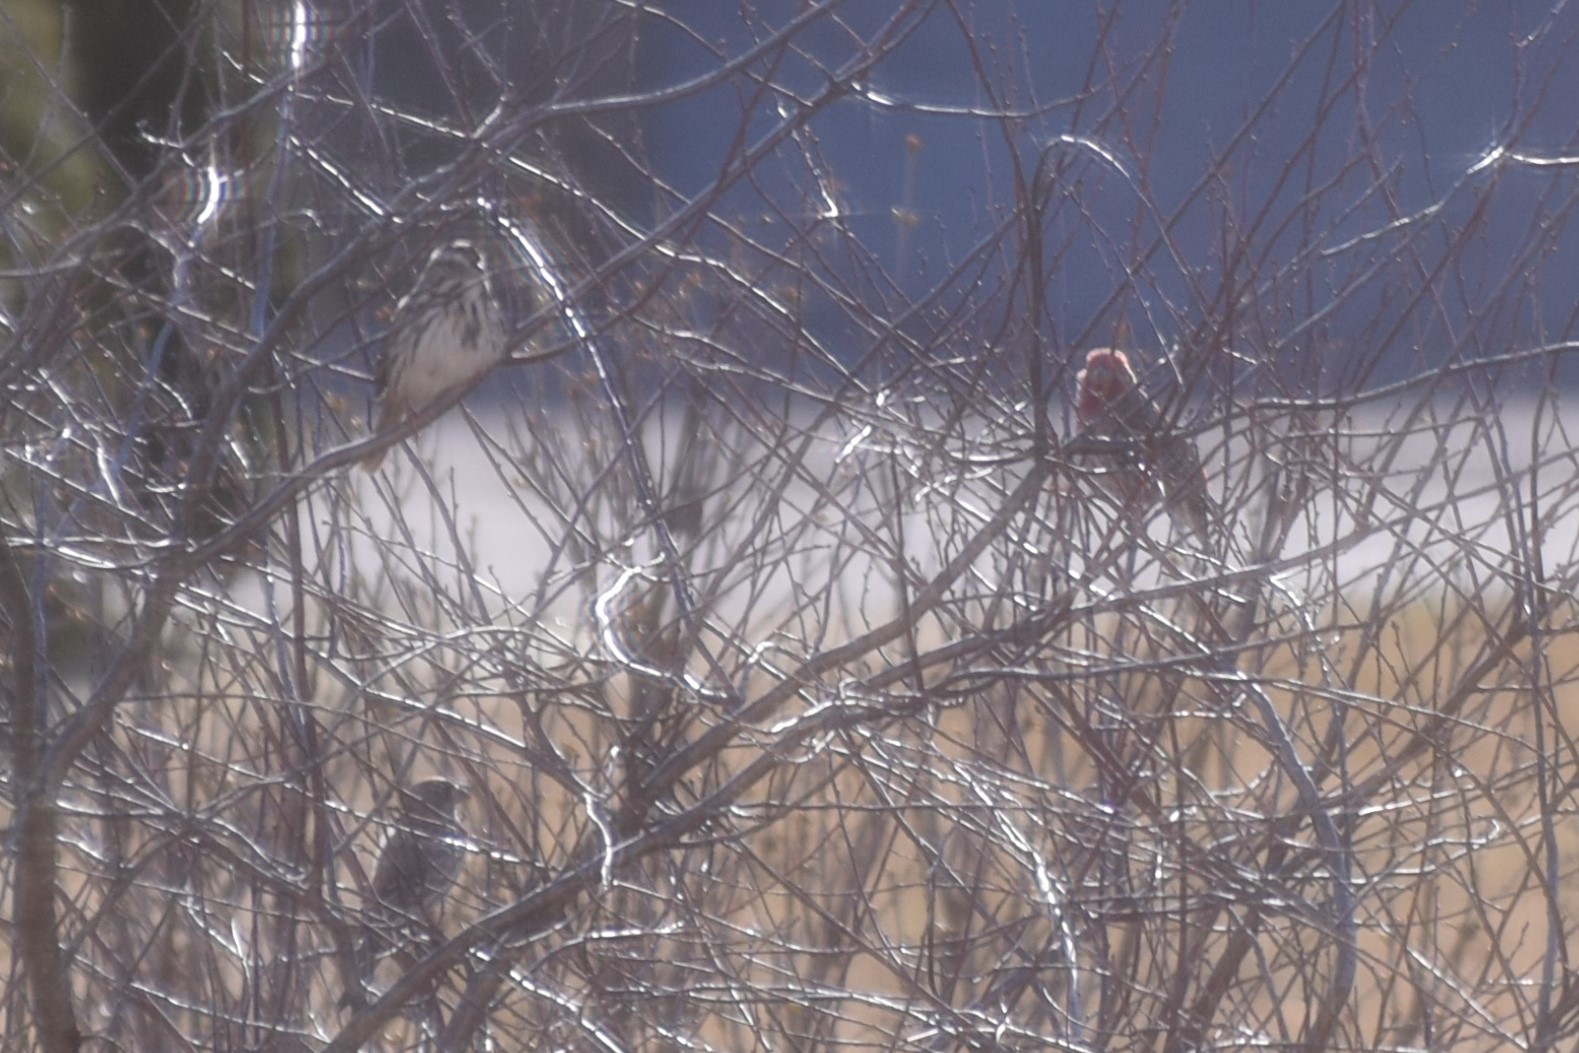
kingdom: Animalia
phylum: Chordata
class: Aves
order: Passeriformes
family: Fringillidae
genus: Haemorhous
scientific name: Haemorhous mexicanus
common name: House finch
